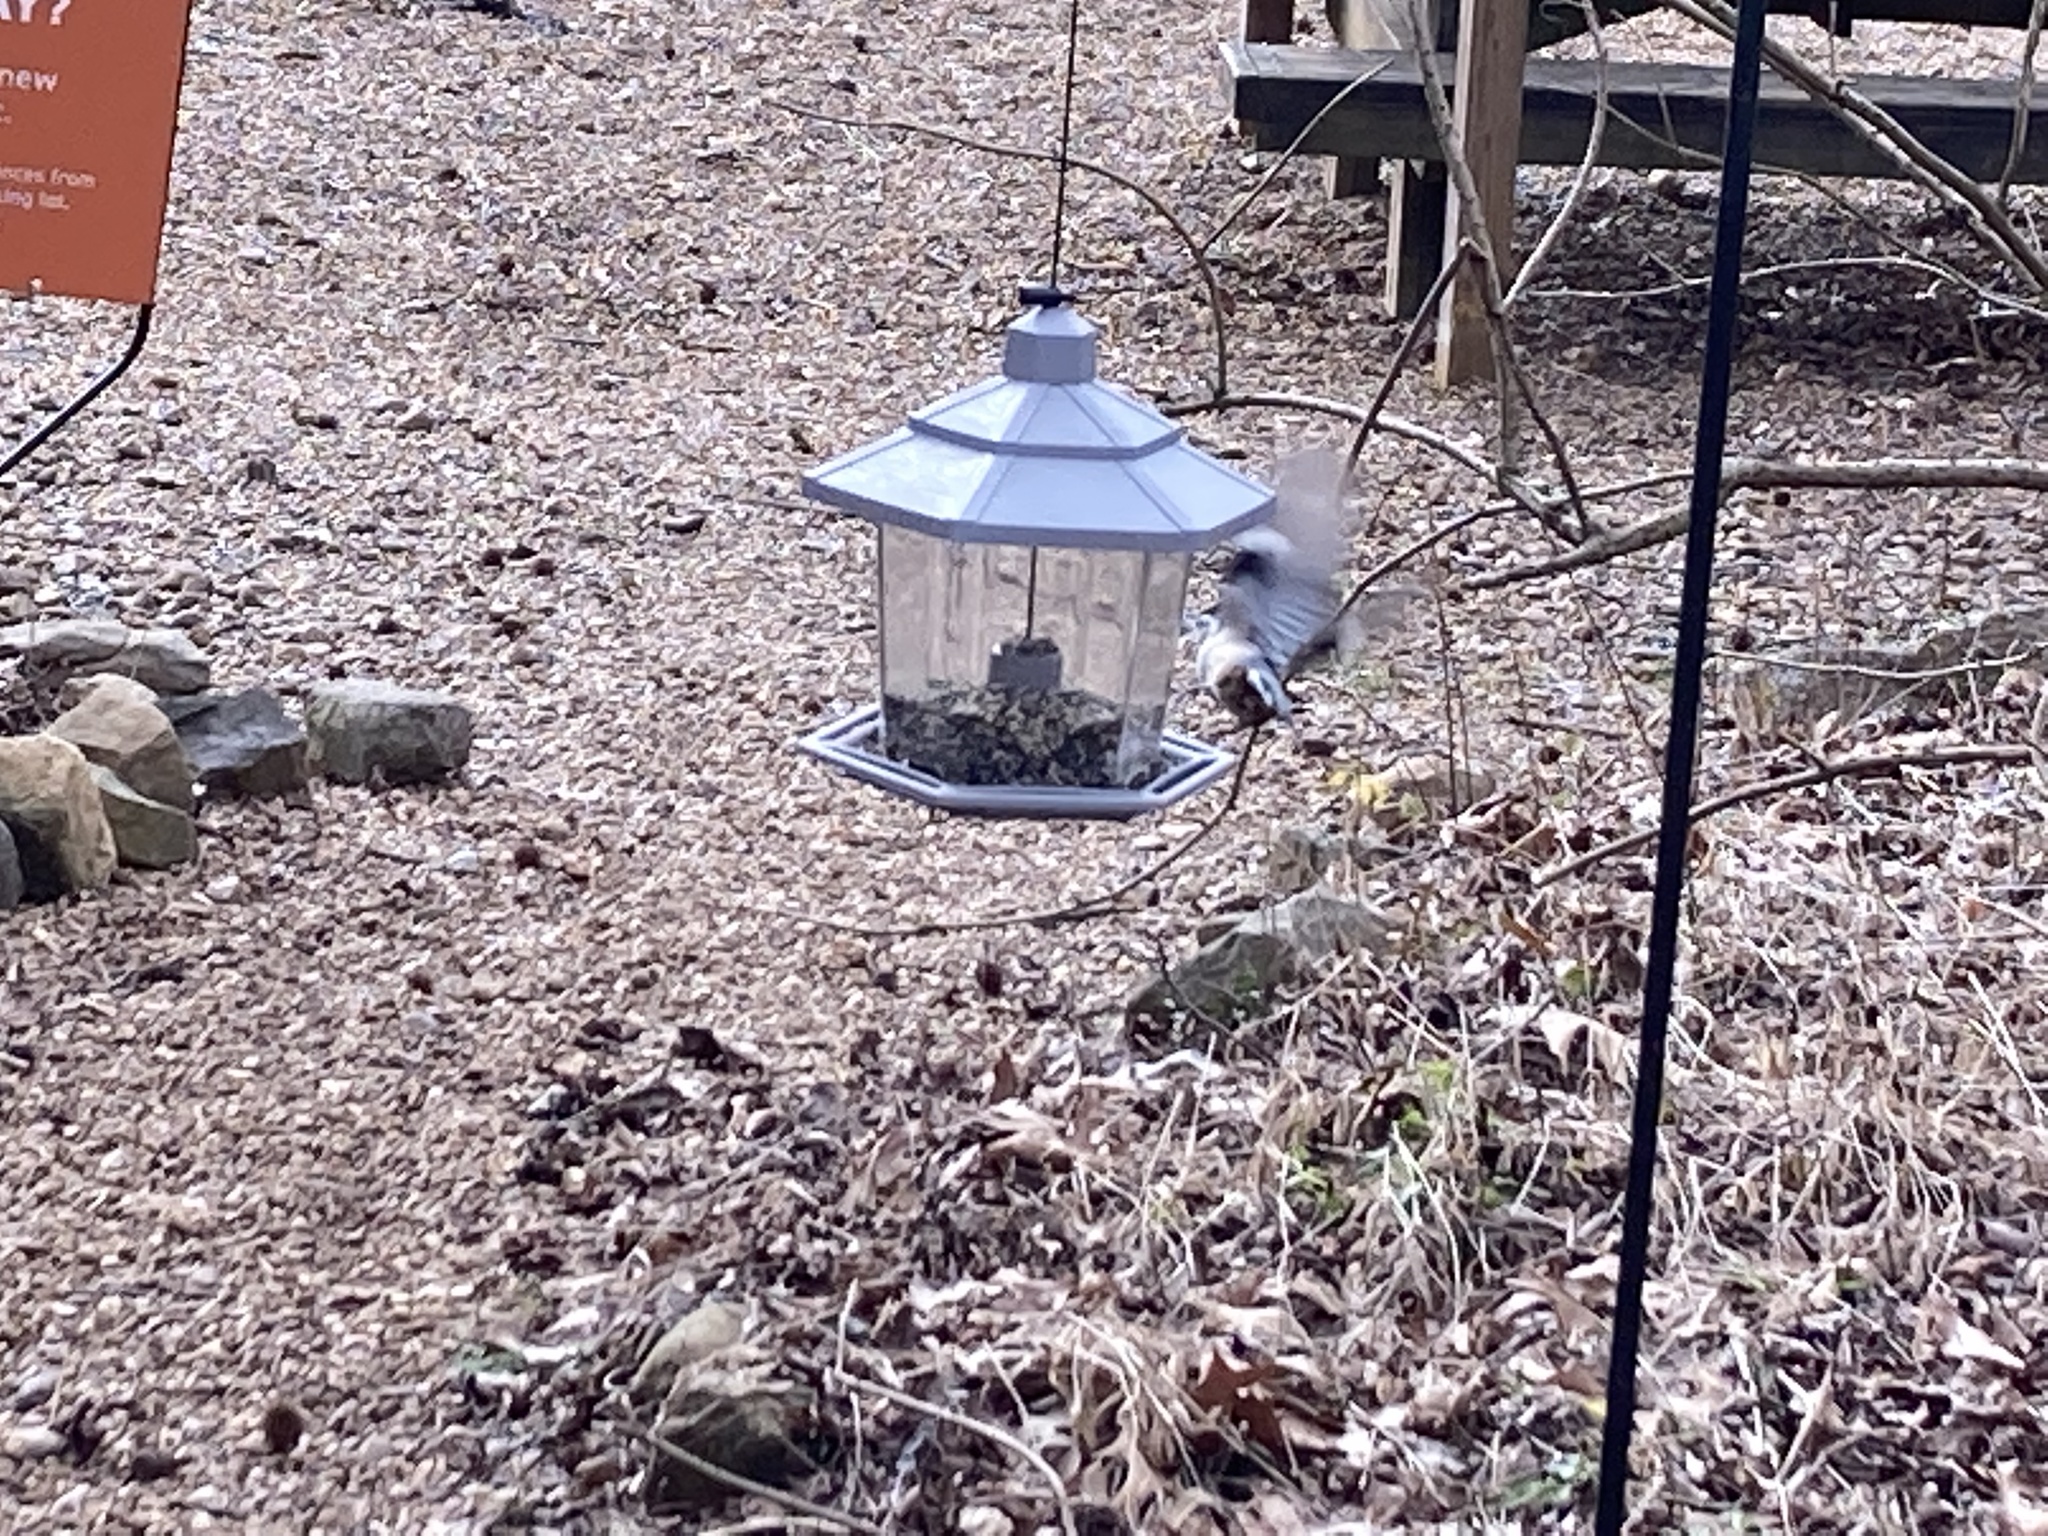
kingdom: Animalia
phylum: Chordata
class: Aves
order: Passeriformes
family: Sittidae
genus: Sitta
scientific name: Sitta carolinensis
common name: White-breasted nuthatch
